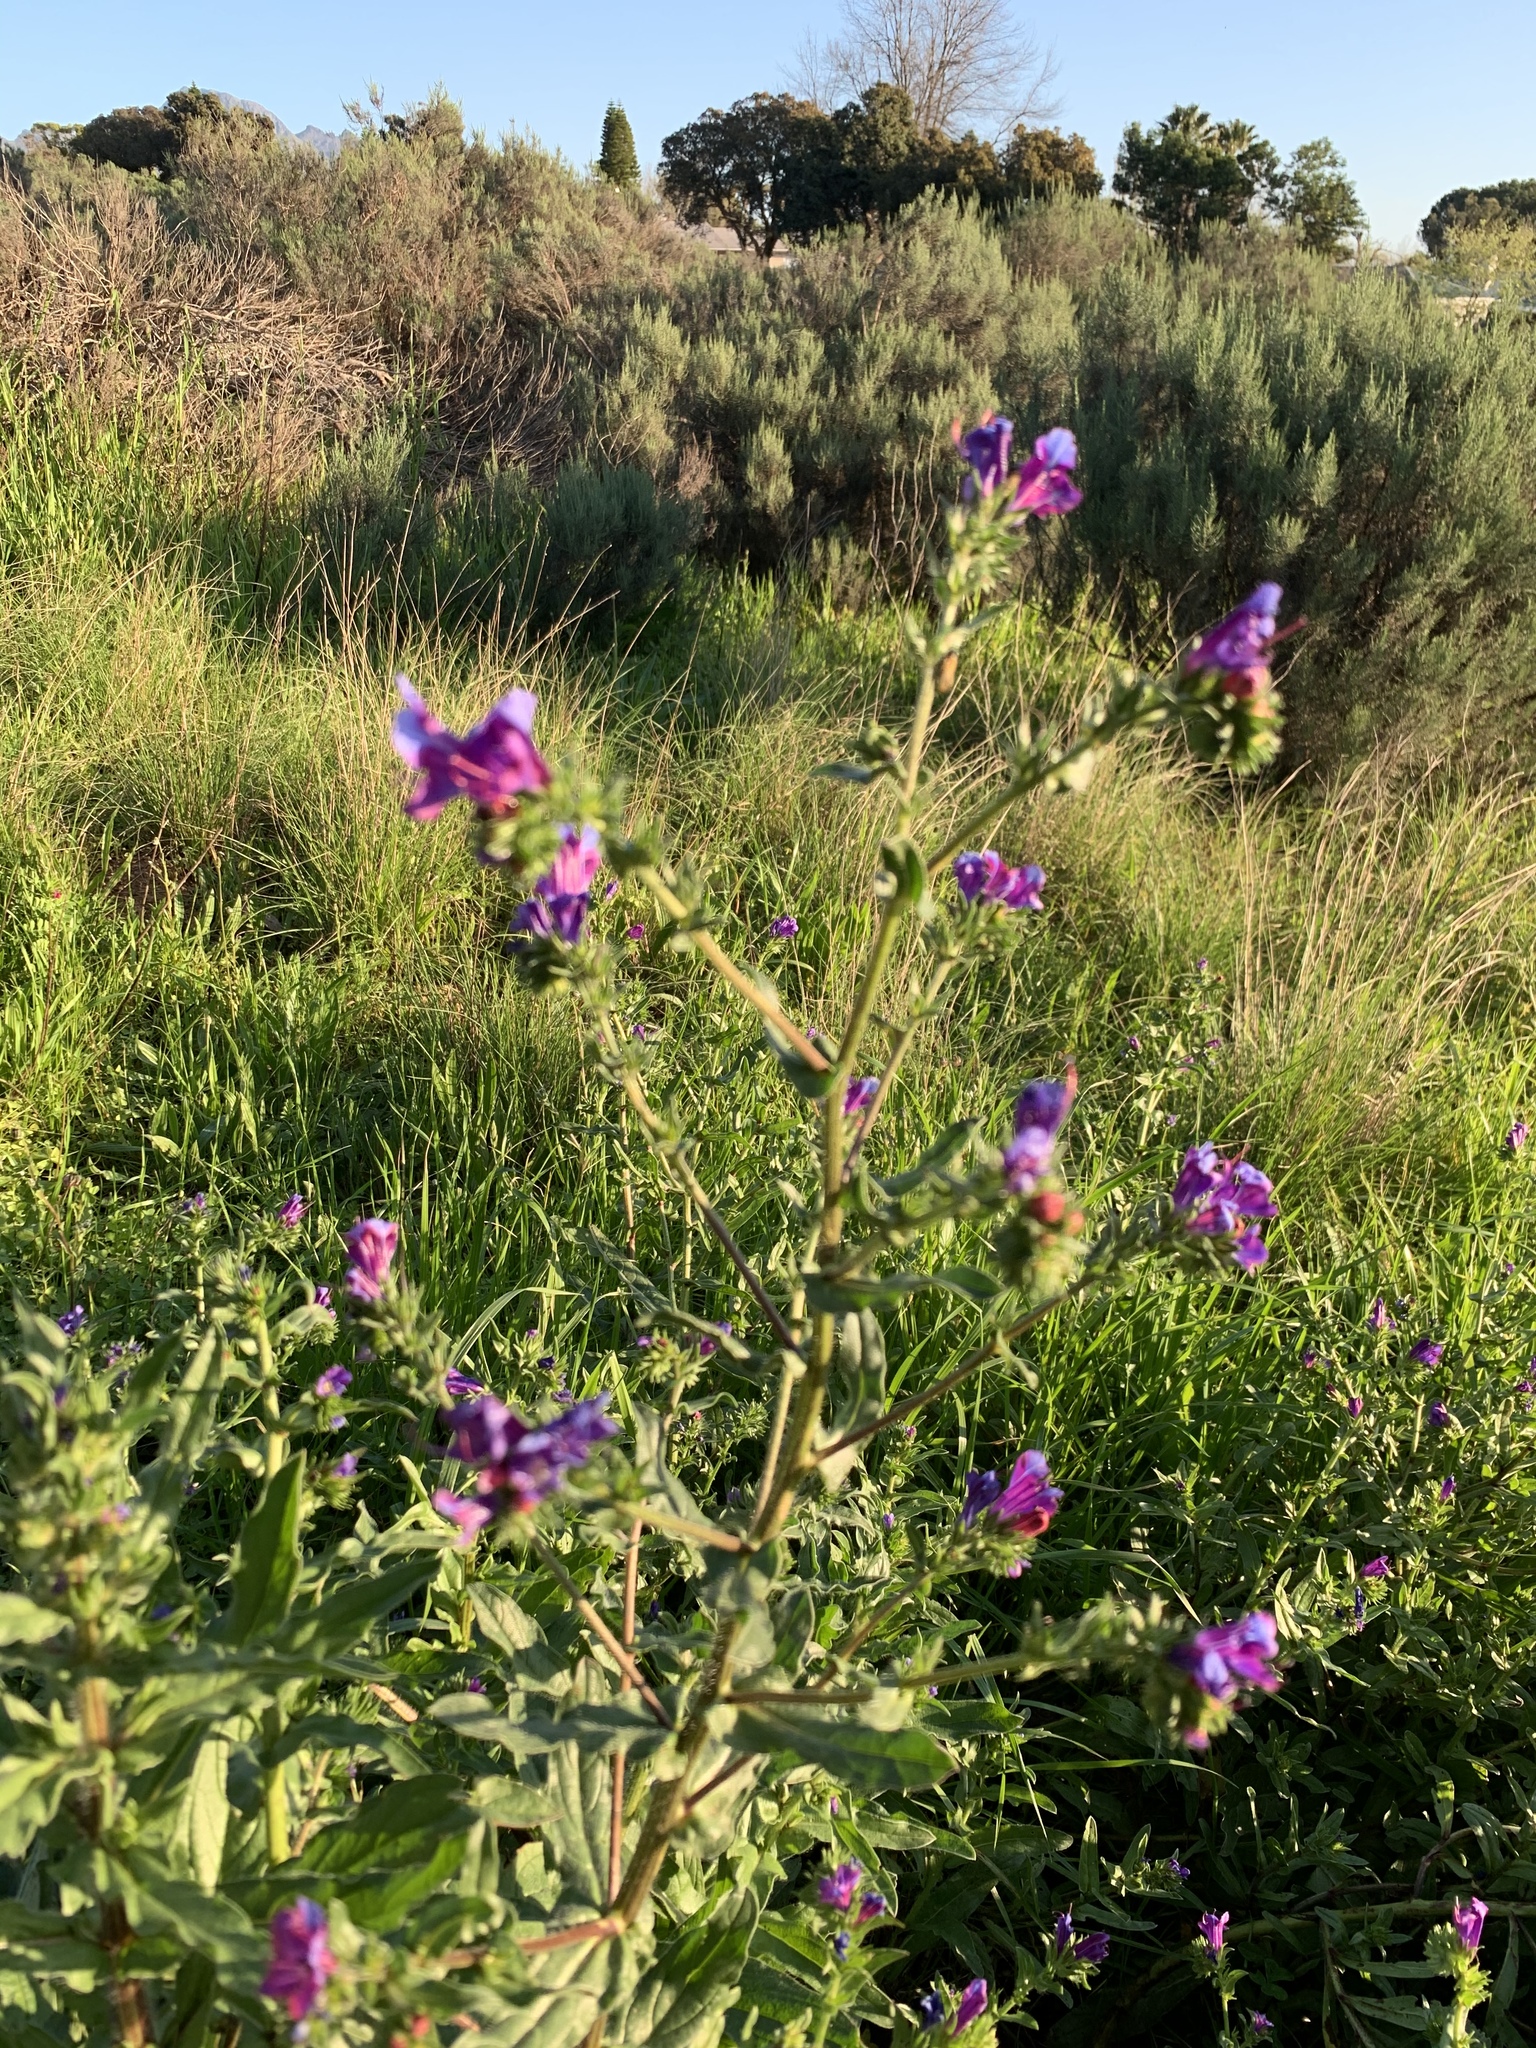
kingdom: Plantae
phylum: Tracheophyta
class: Magnoliopsida
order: Boraginales
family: Boraginaceae
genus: Echium
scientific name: Echium plantagineum
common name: Purple viper's-bugloss
